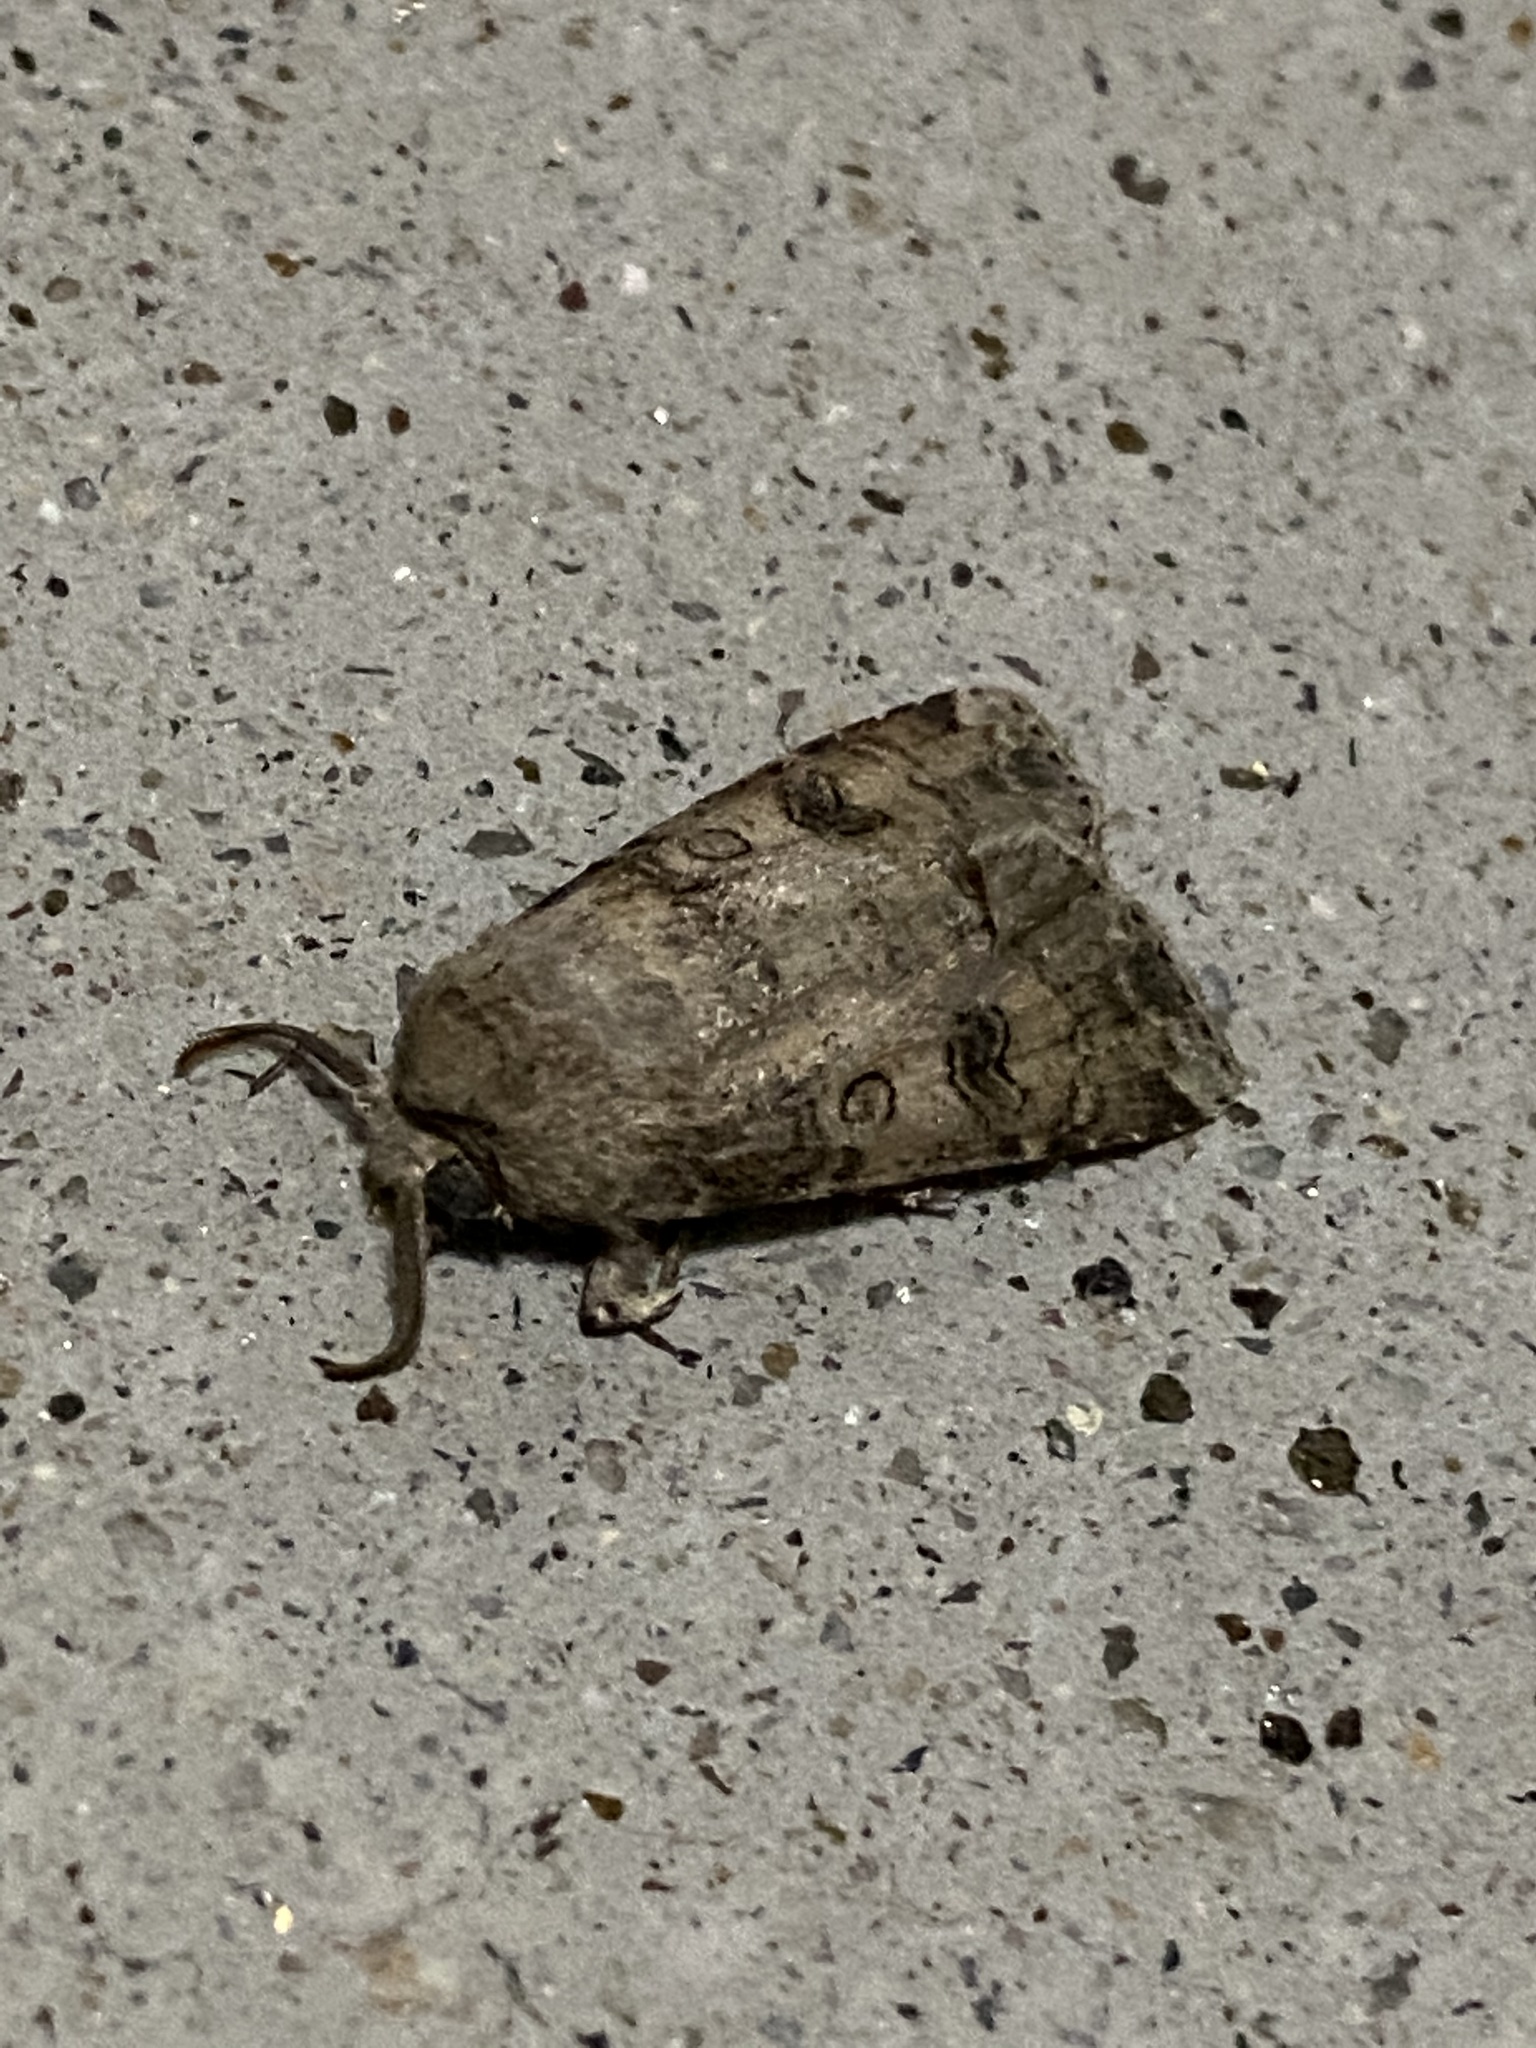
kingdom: Animalia
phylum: Arthropoda
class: Insecta
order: Lepidoptera
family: Noctuidae
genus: Agrotis
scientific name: Agrotis segetum
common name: Turnip moth
